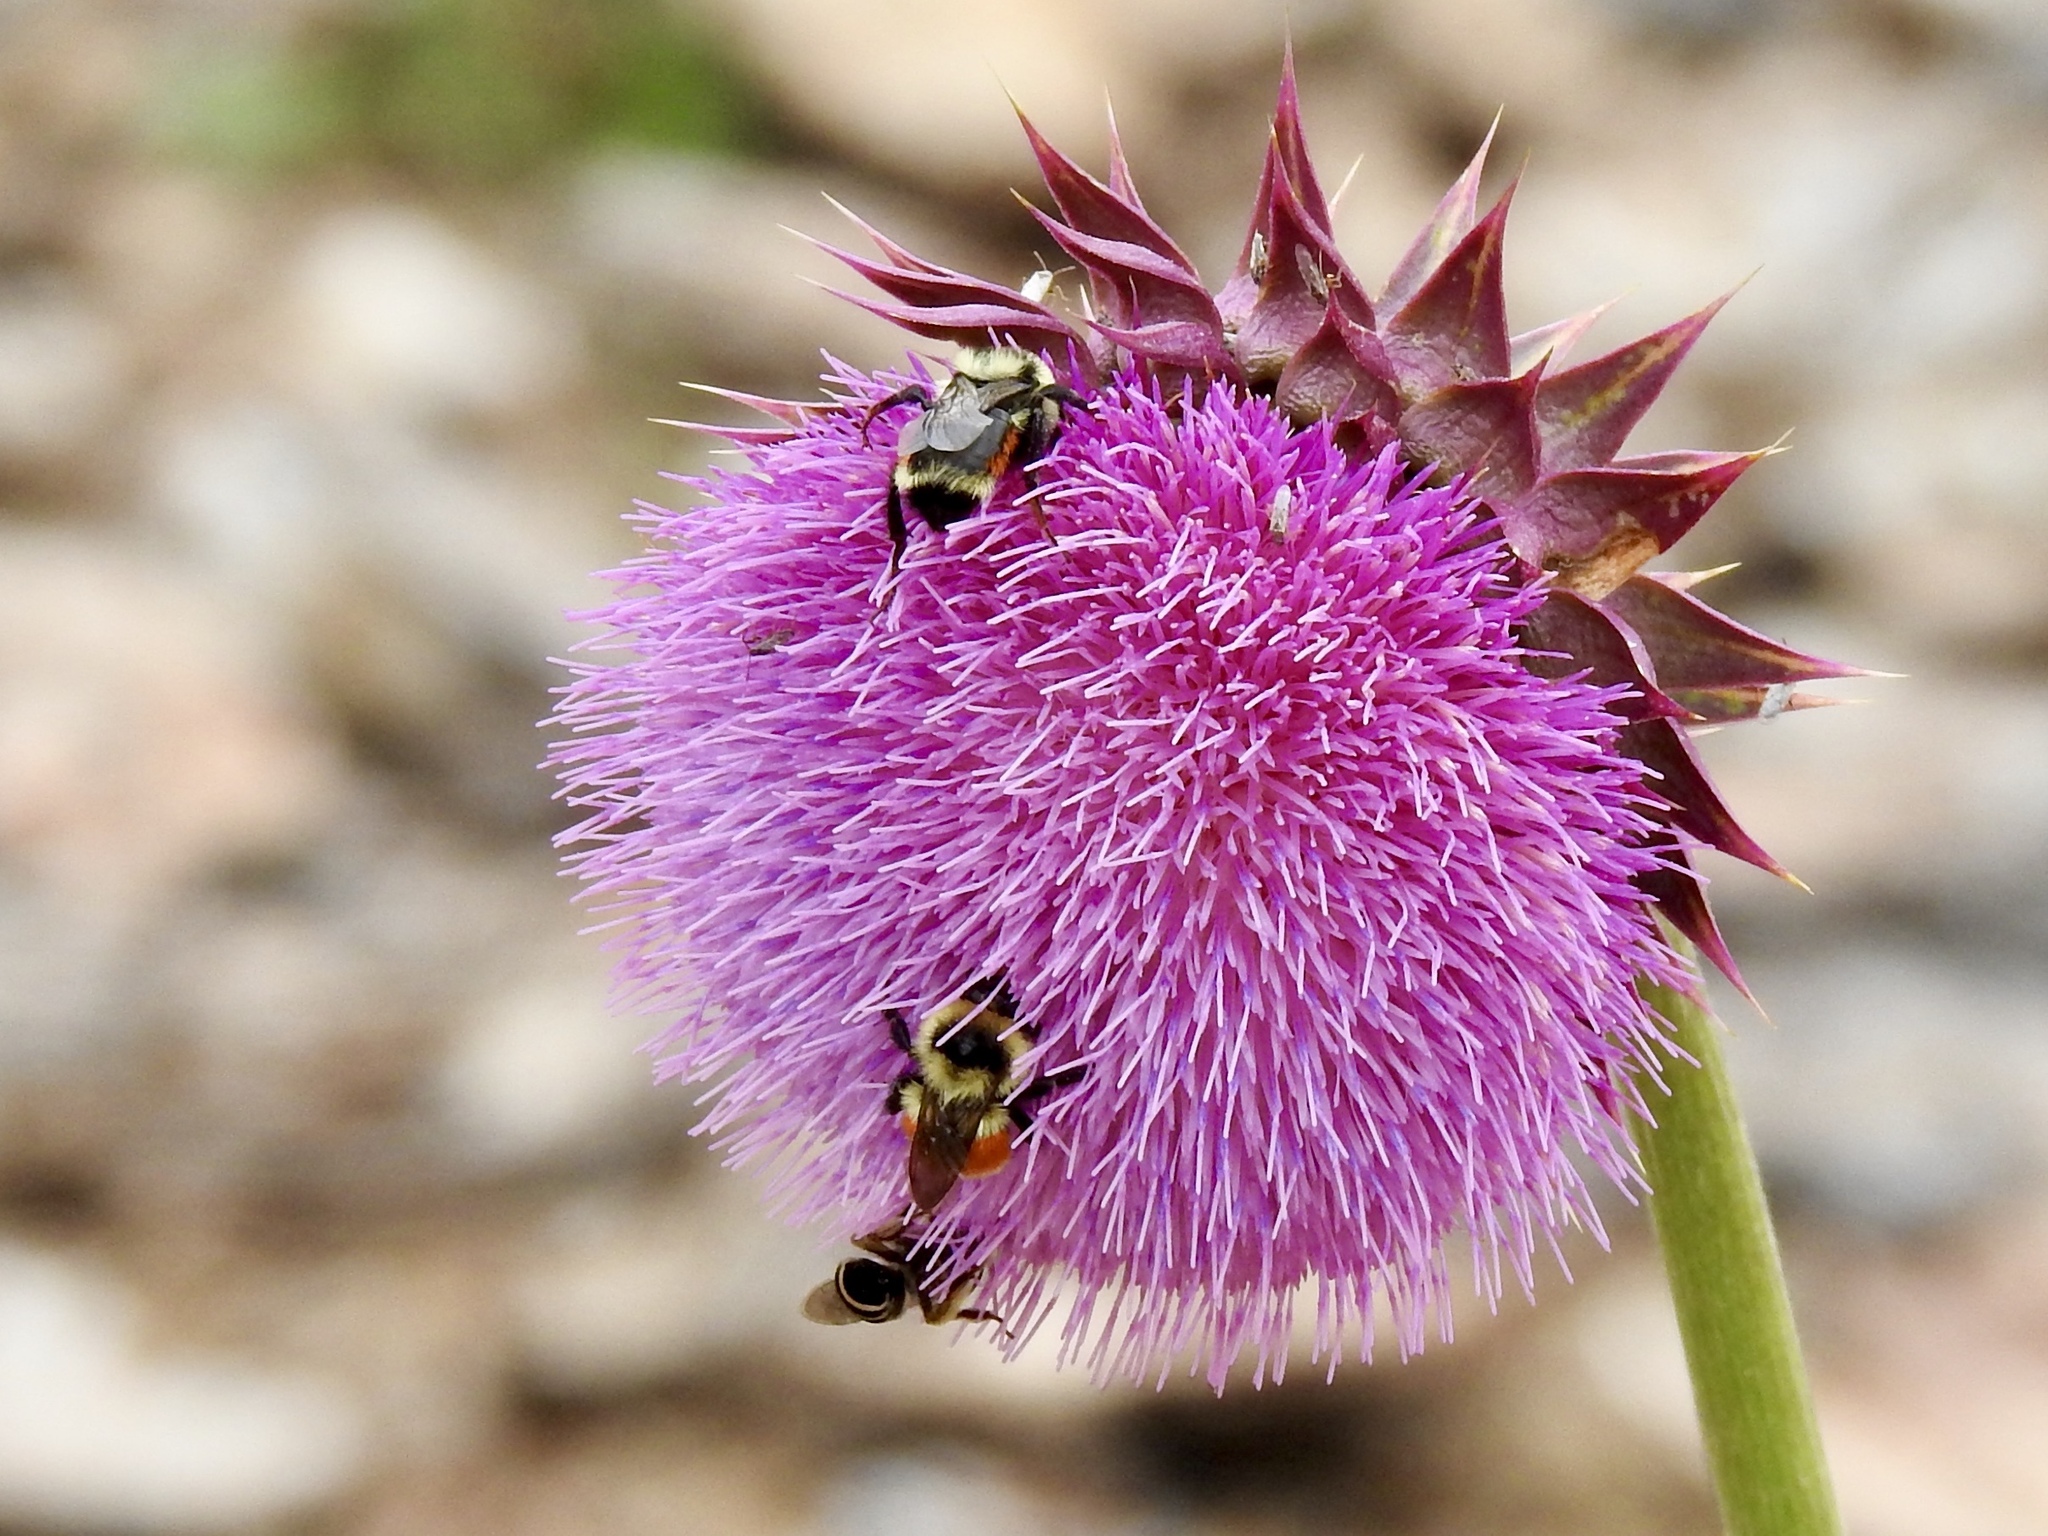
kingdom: Animalia
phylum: Arthropoda
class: Insecta
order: Hymenoptera
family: Apidae
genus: Bombus
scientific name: Bombus huntii
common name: Hunt bumble bee
